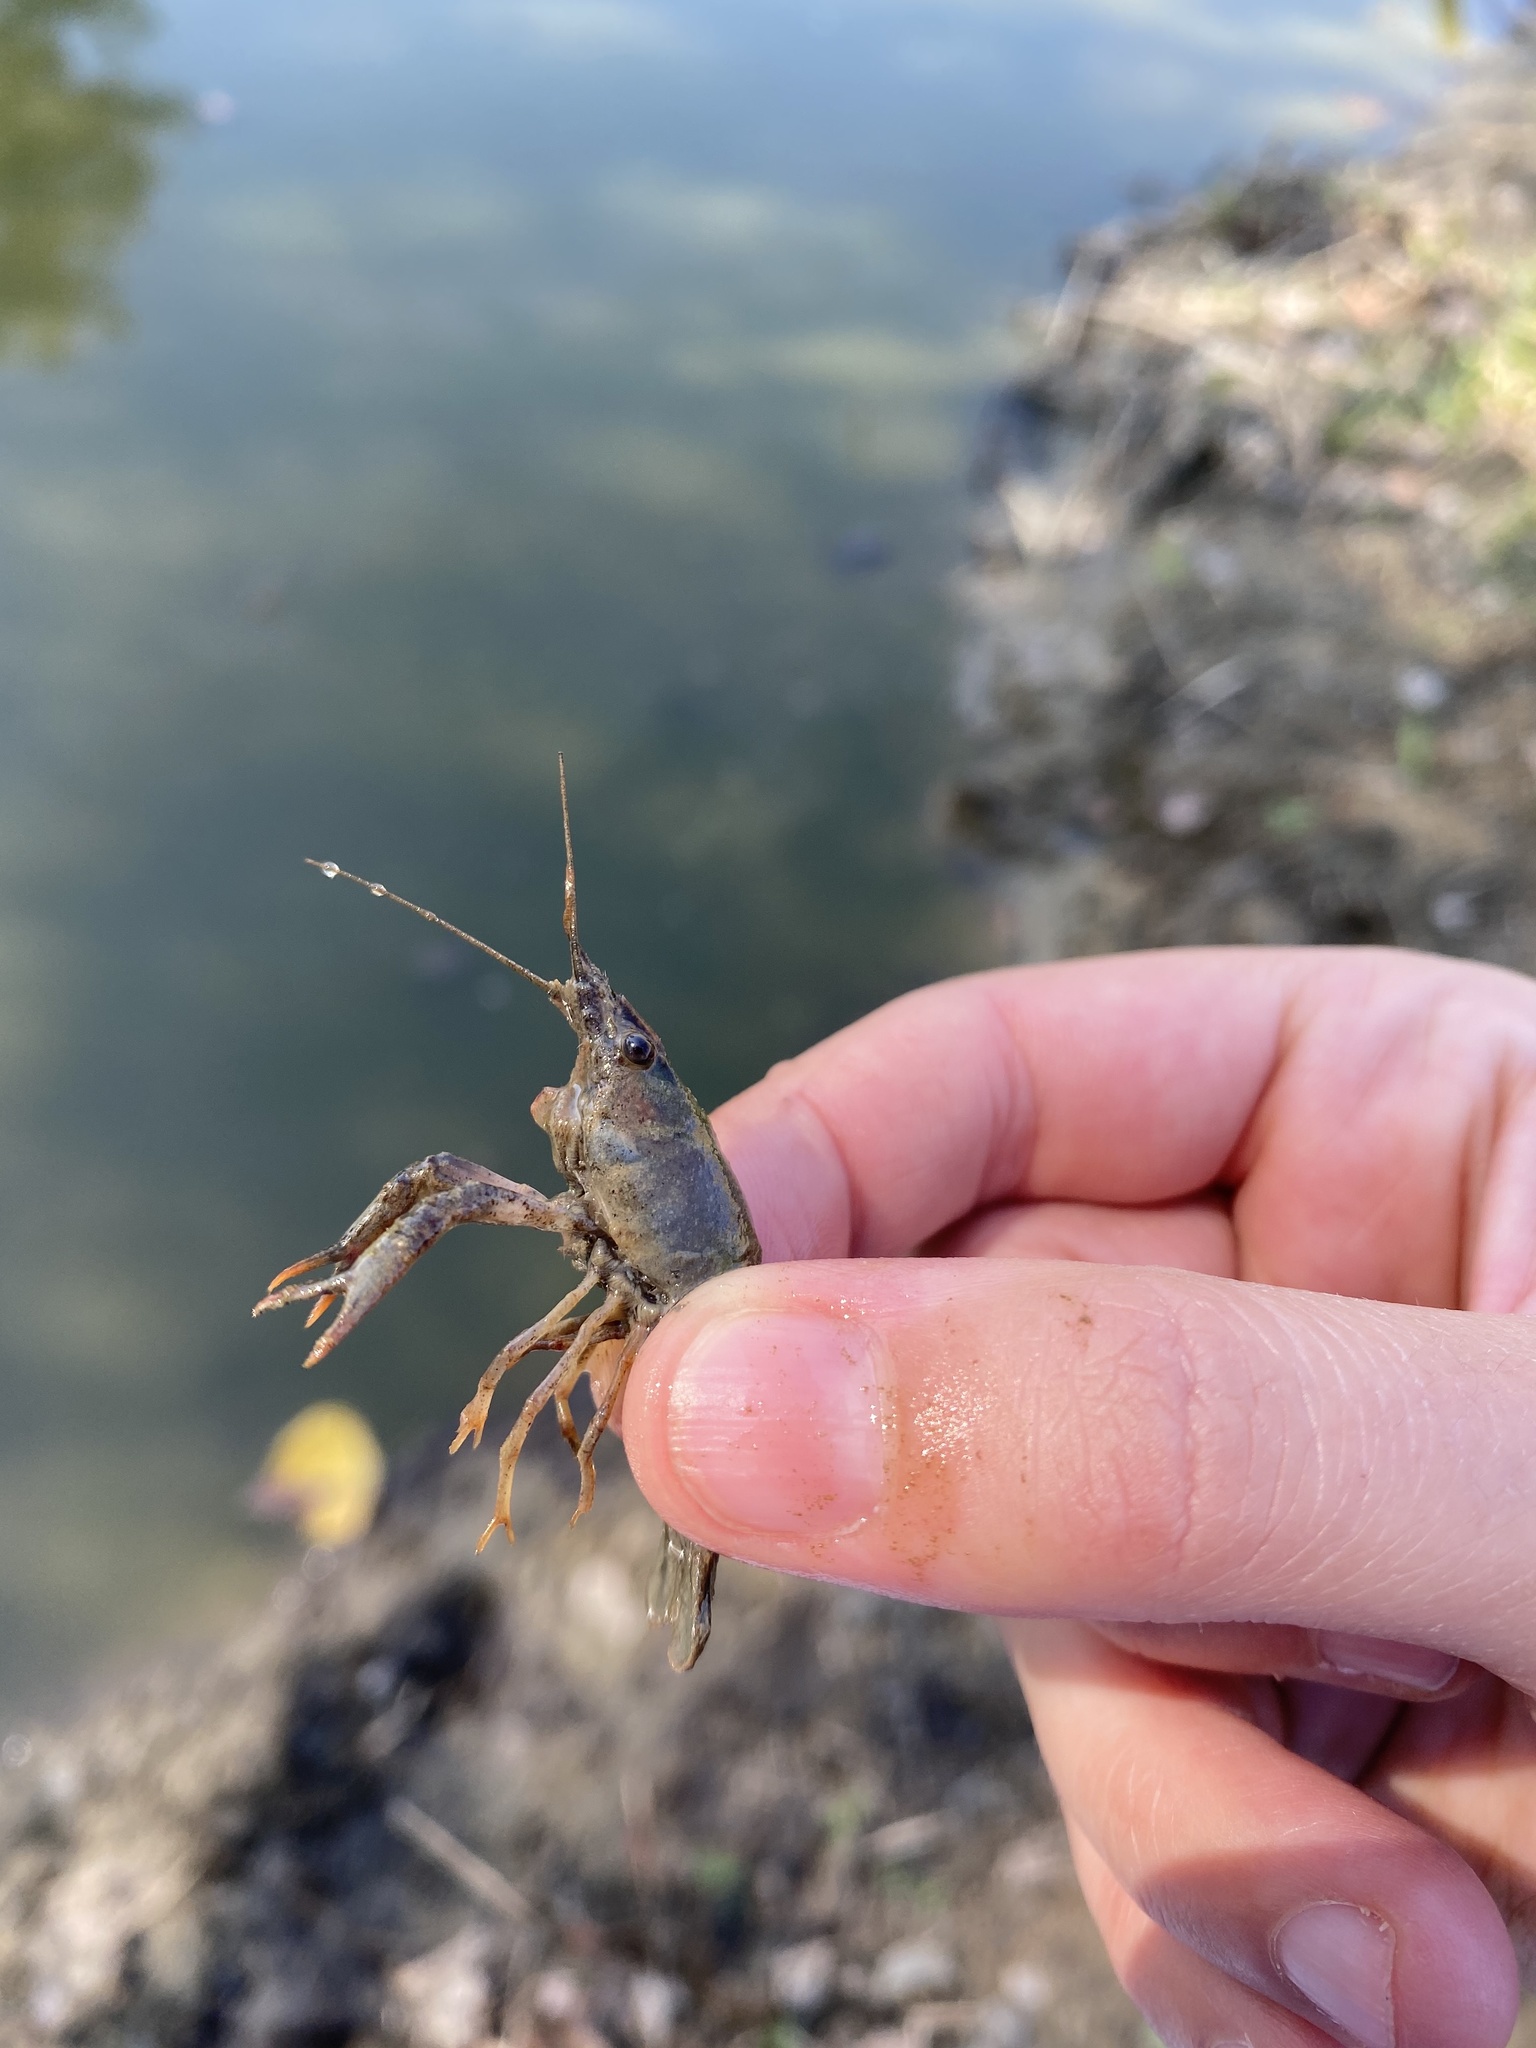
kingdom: Animalia
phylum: Arthropoda
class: Malacostraca
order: Decapoda
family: Cambaridae
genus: Procambarus
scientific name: Procambarus clarkii
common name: Red swamp crayfish
